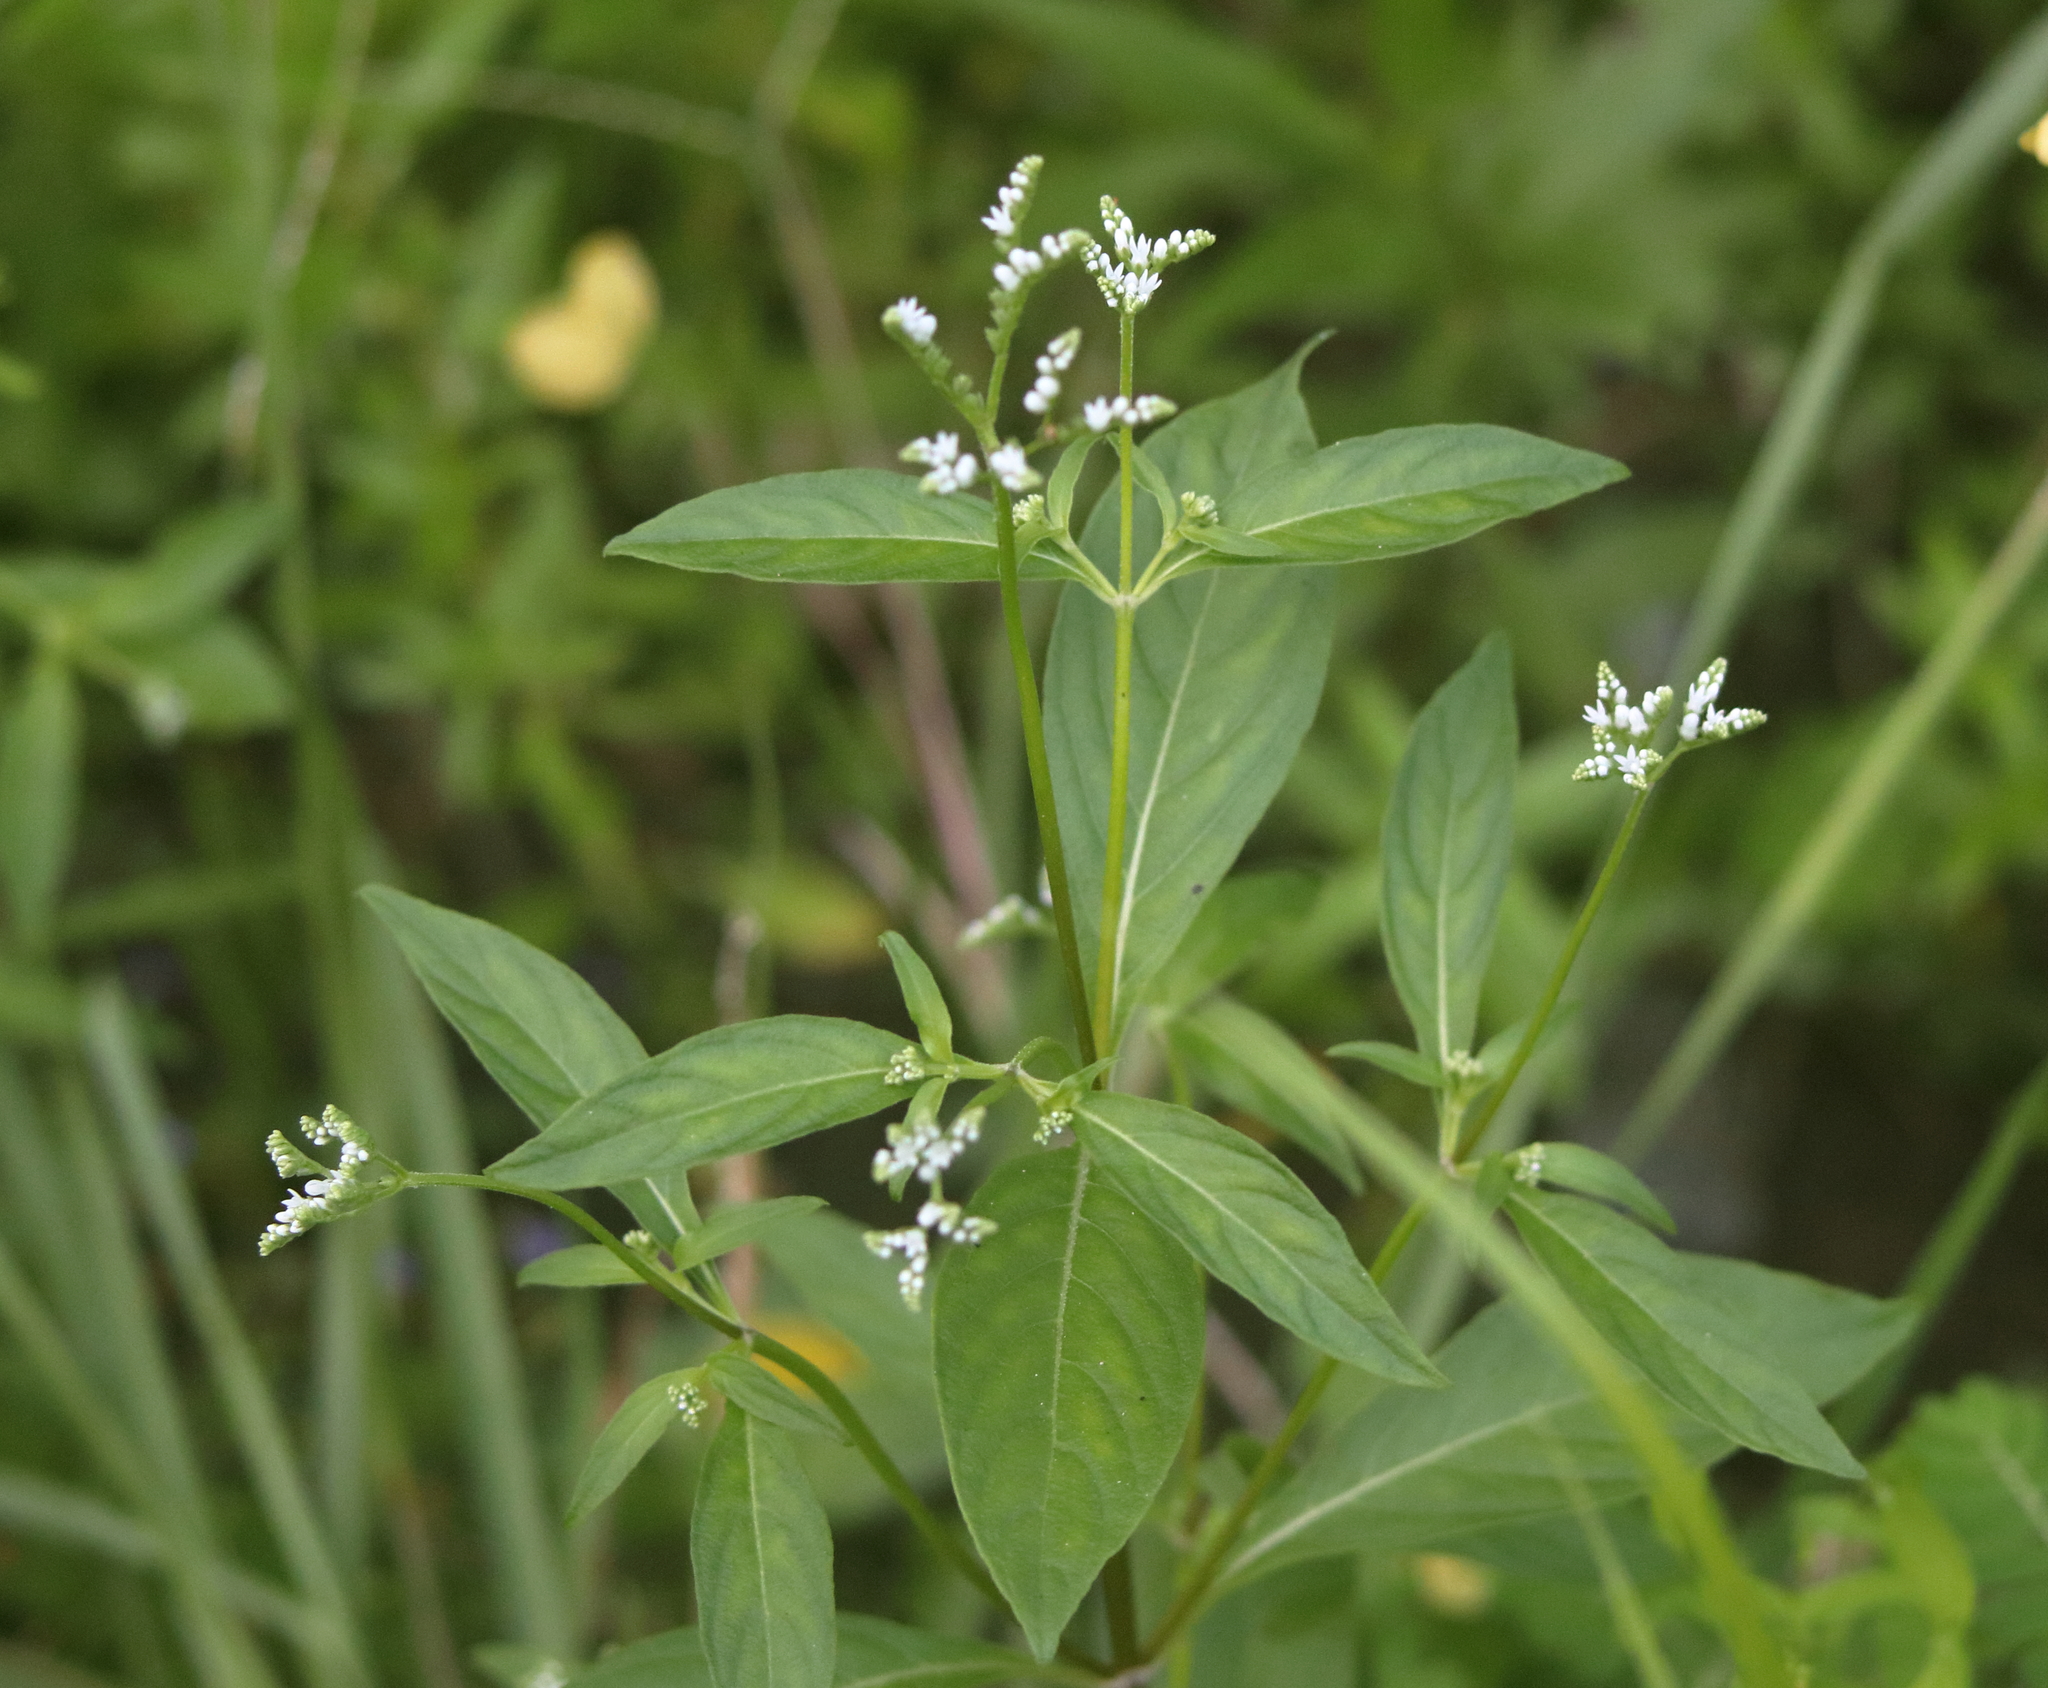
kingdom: Plantae
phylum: Tracheophyta
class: Magnoliopsida
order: Gentianales
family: Loganiaceae
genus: Mitreola
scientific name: Mitreola petiolata
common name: Lax hornpod
